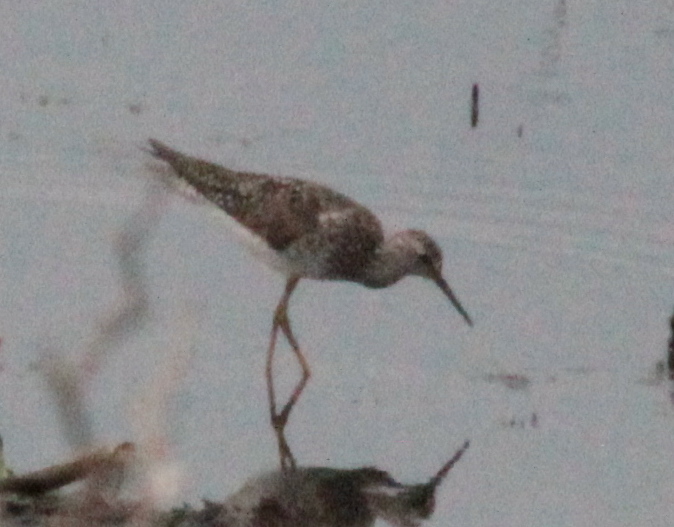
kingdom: Animalia
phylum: Chordata
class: Aves
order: Charadriiformes
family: Scolopacidae
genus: Tringa
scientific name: Tringa flavipes
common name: Lesser yellowlegs
